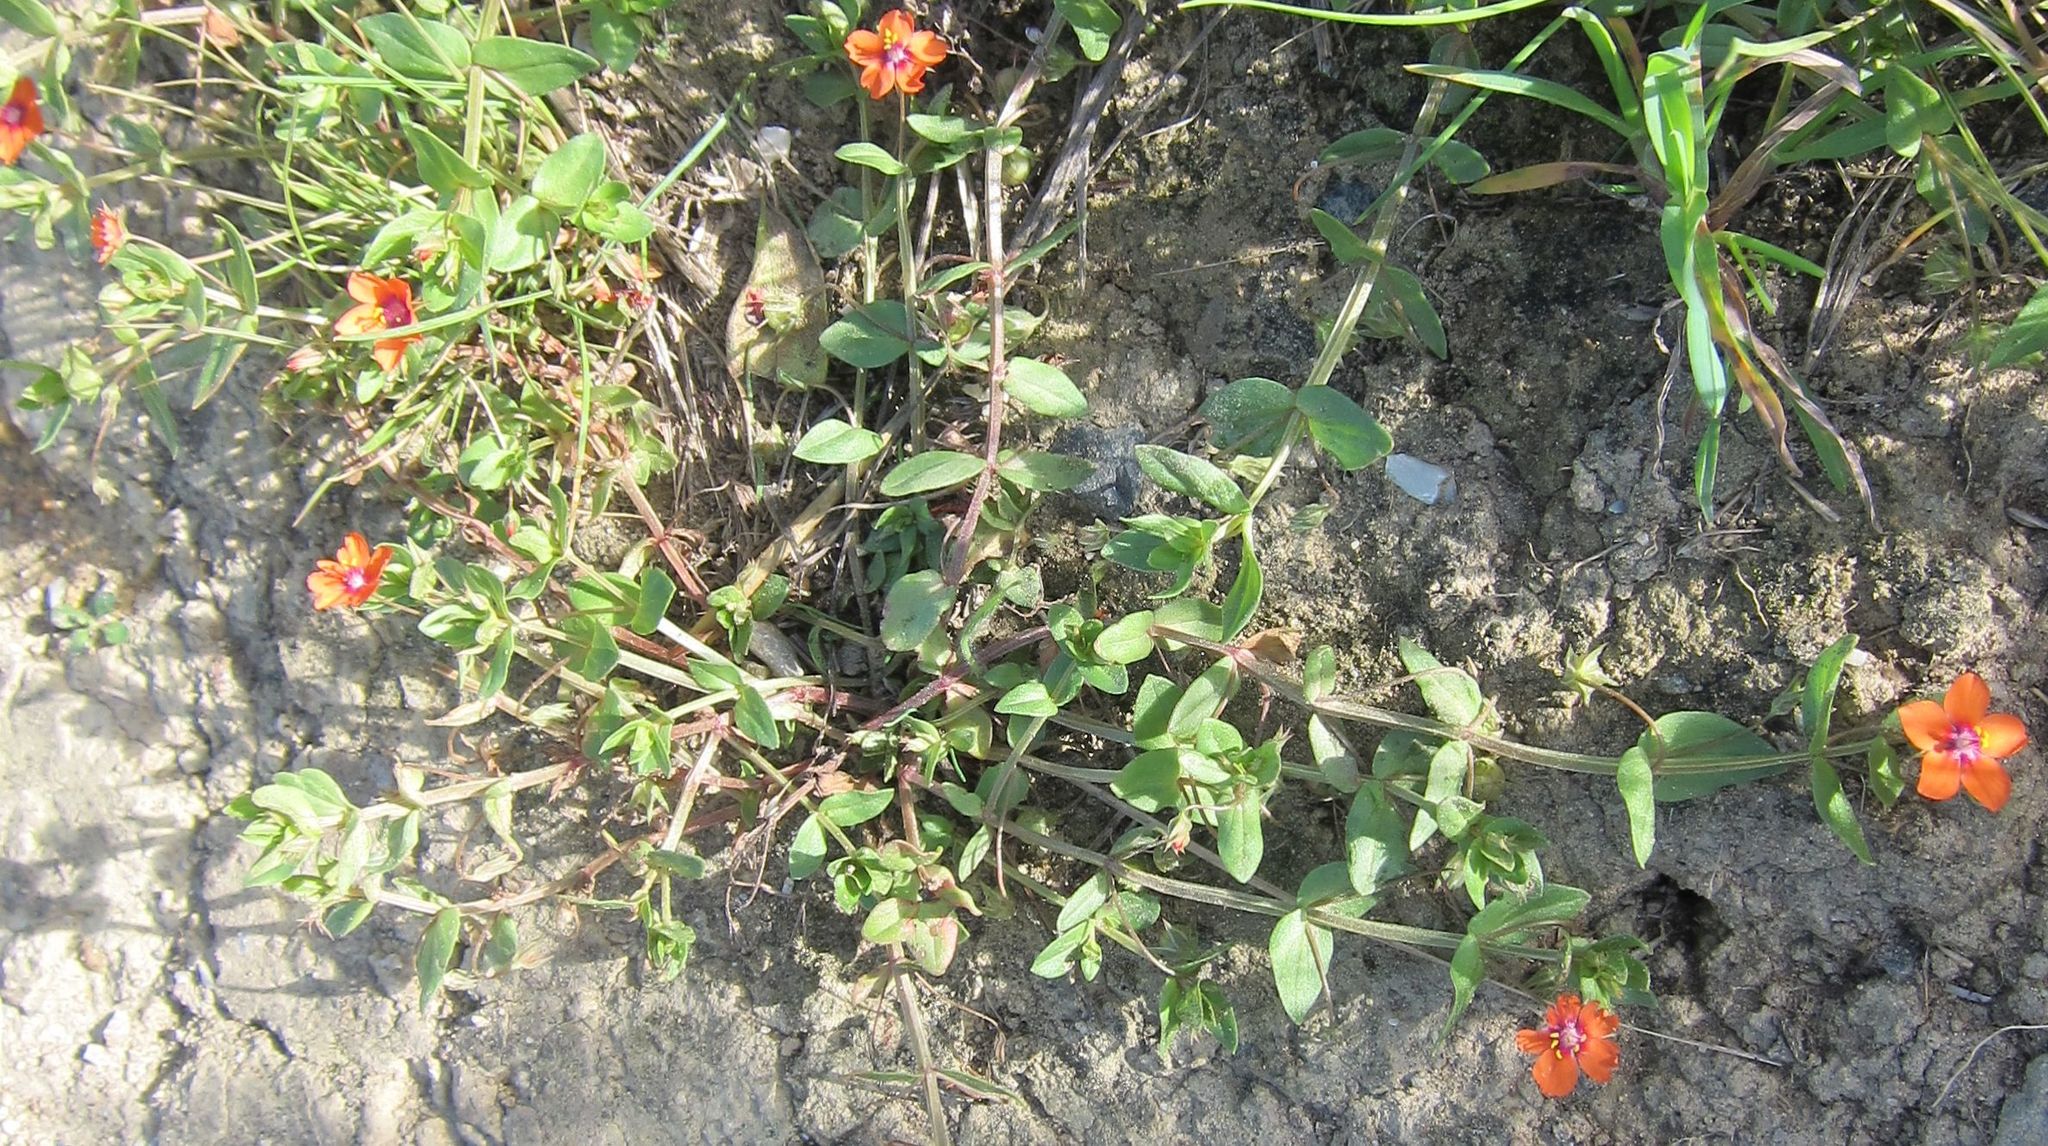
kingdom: Plantae
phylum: Tracheophyta
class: Magnoliopsida
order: Ericales
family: Primulaceae
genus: Lysimachia
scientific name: Lysimachia arvensis
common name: Scarlet pimpernel
